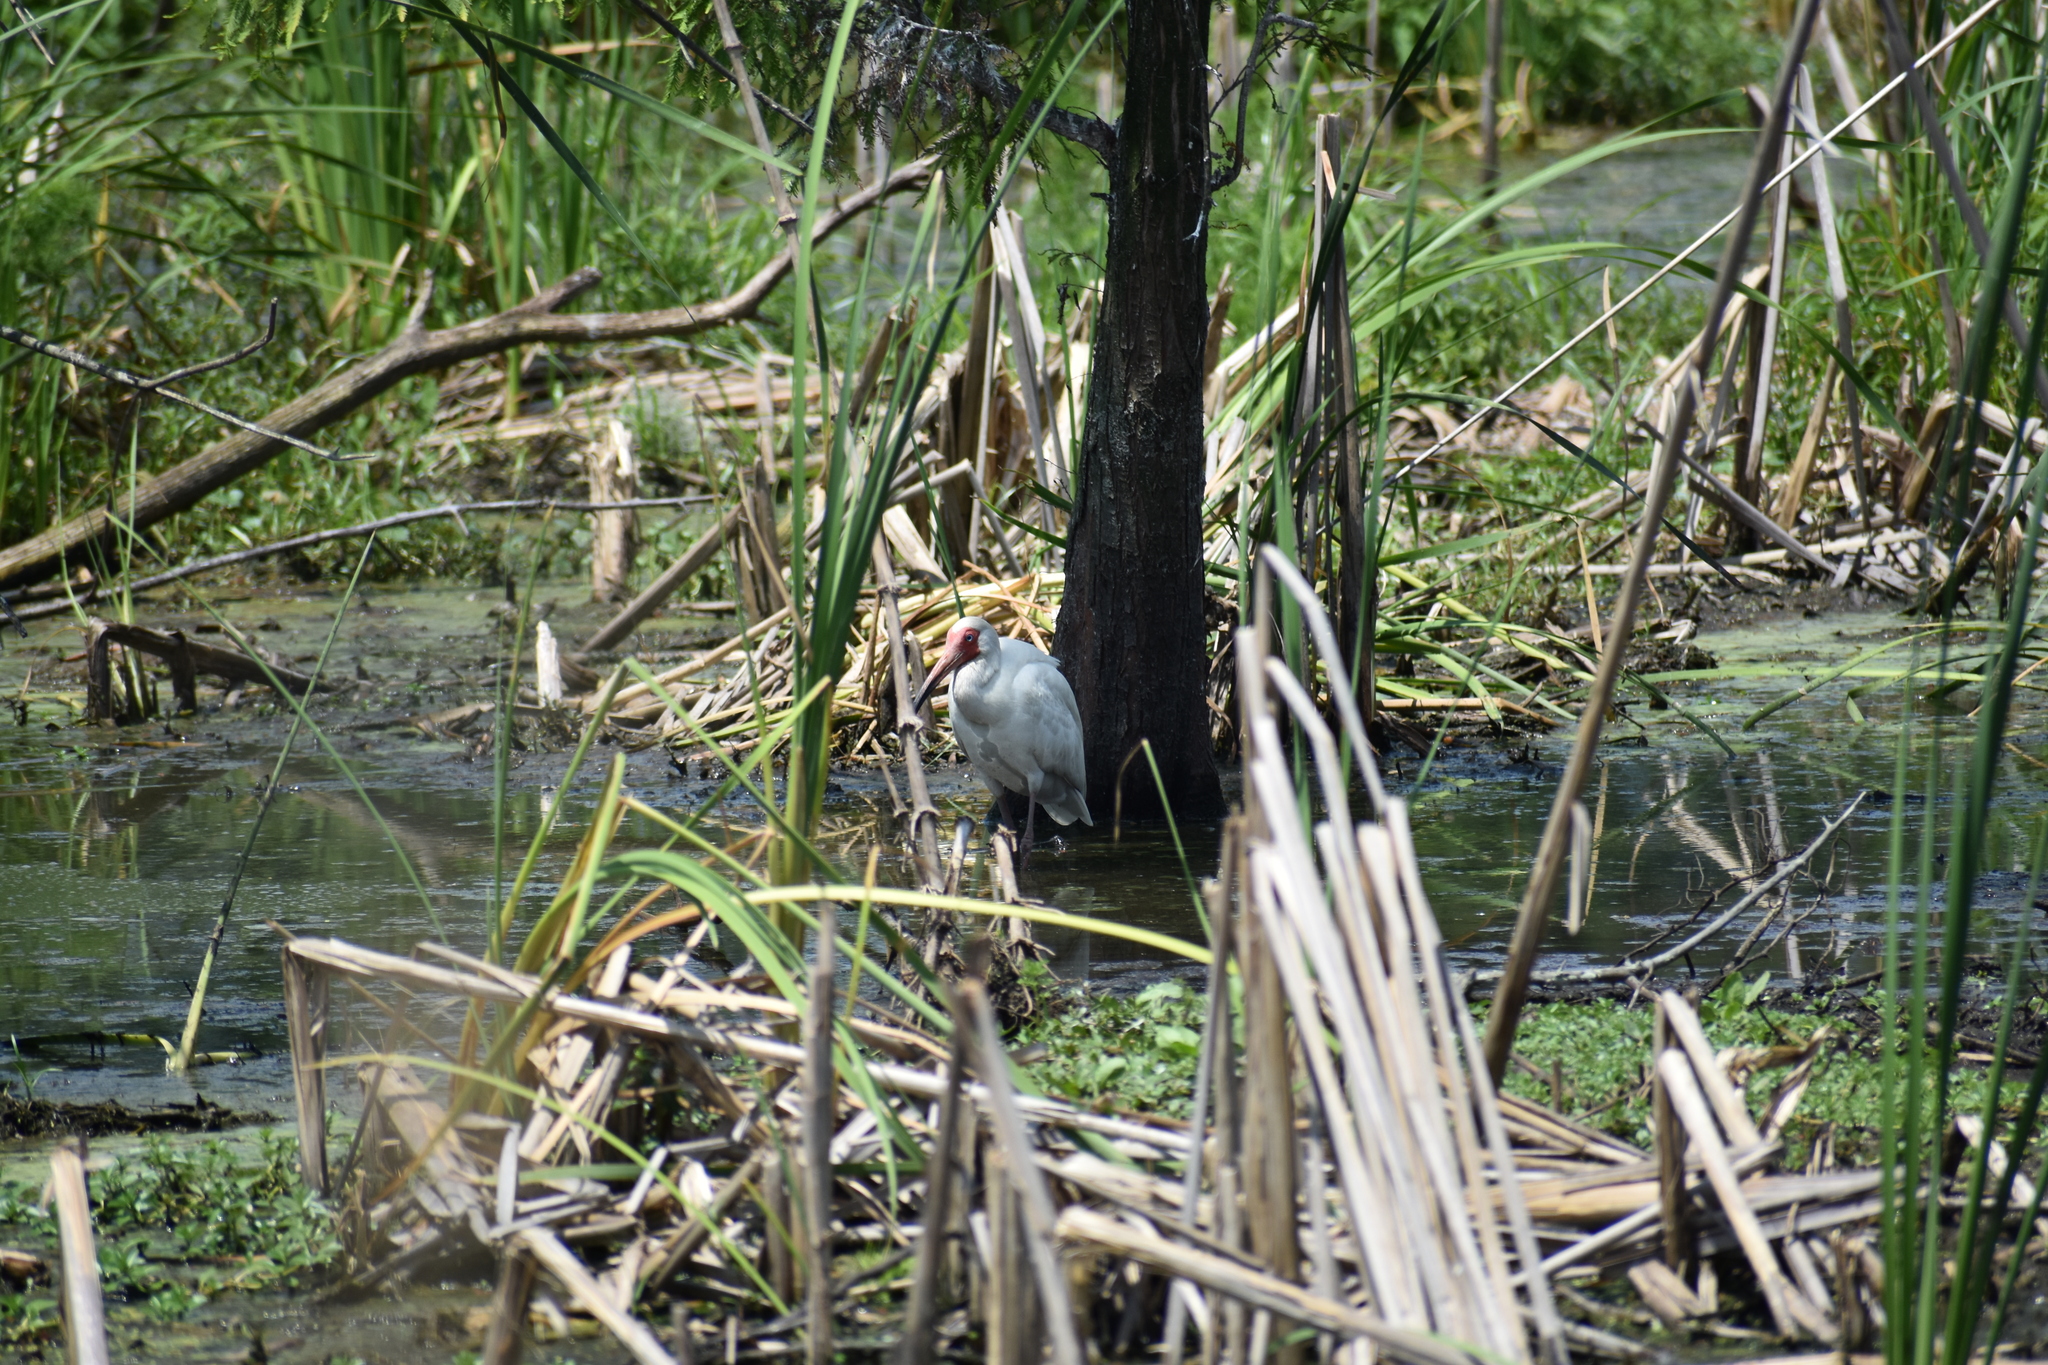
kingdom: Animalia
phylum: Chordata
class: Aves
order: Pelecaniformes
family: Threskiornithidae
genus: Eudocimus
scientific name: Eudocimus albus
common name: White ibis
